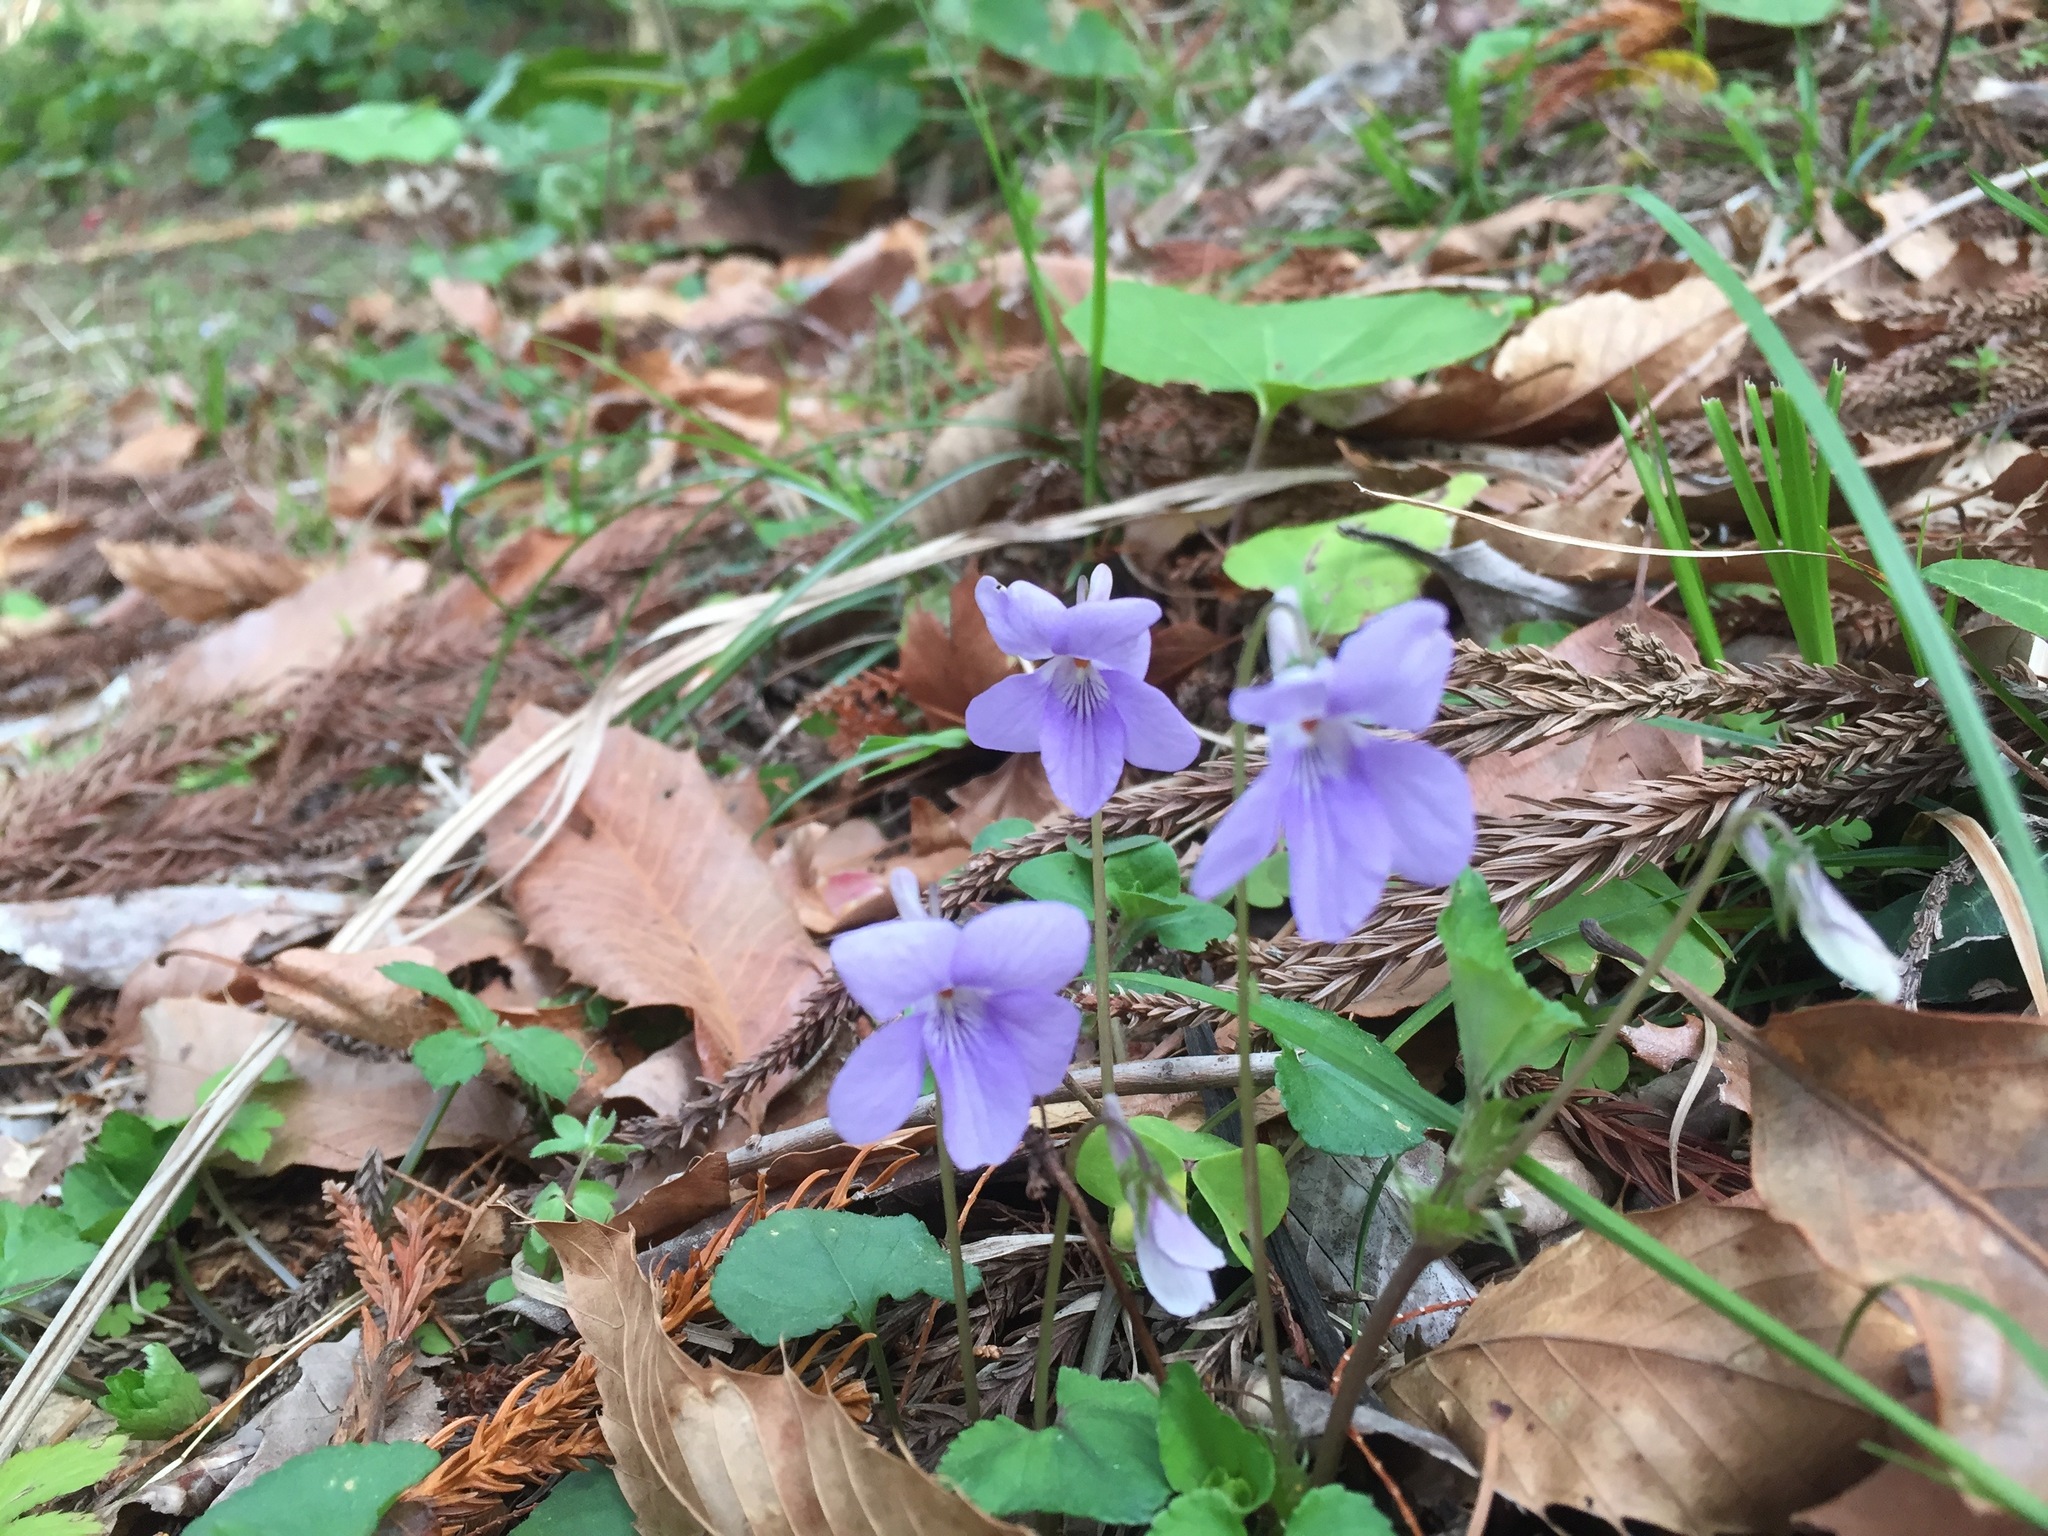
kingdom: Plantae
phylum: Tracheophyta
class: Magnoliopsida
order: Malpighiales
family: Violaceae
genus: Viola
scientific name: Viola grypoceras
